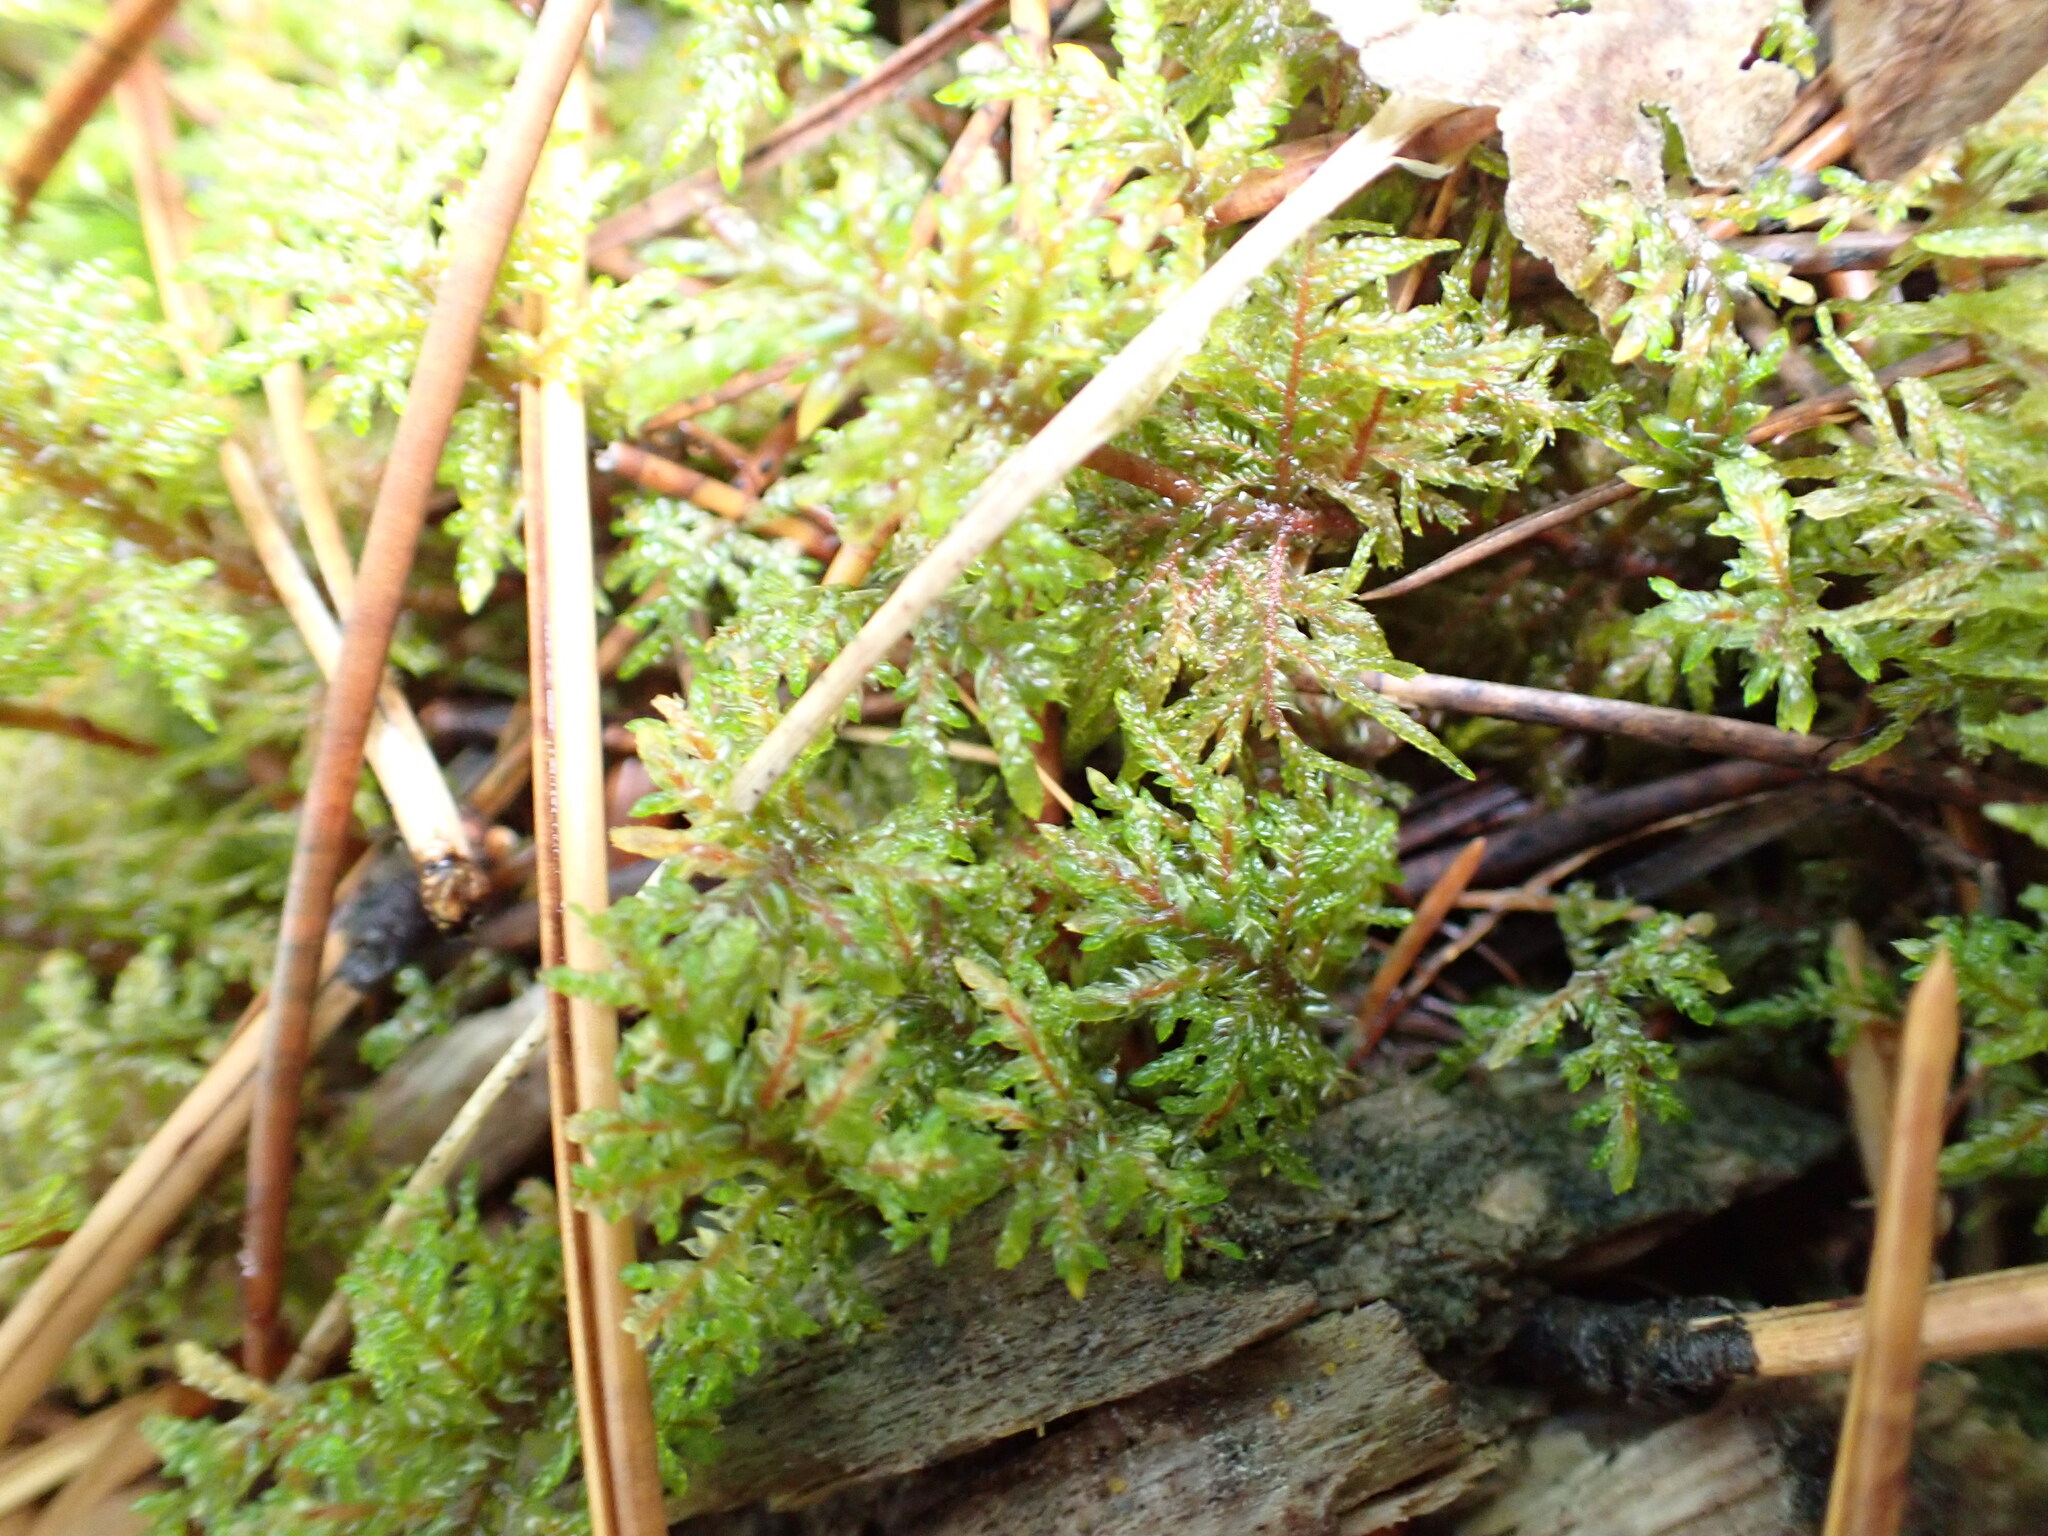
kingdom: Plantae
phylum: Bryophyta
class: Bryopsida
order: Hypnales
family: Hylocomiaceae
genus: Hylocomium
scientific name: Hylocomium splendens
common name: Stairstep moss
